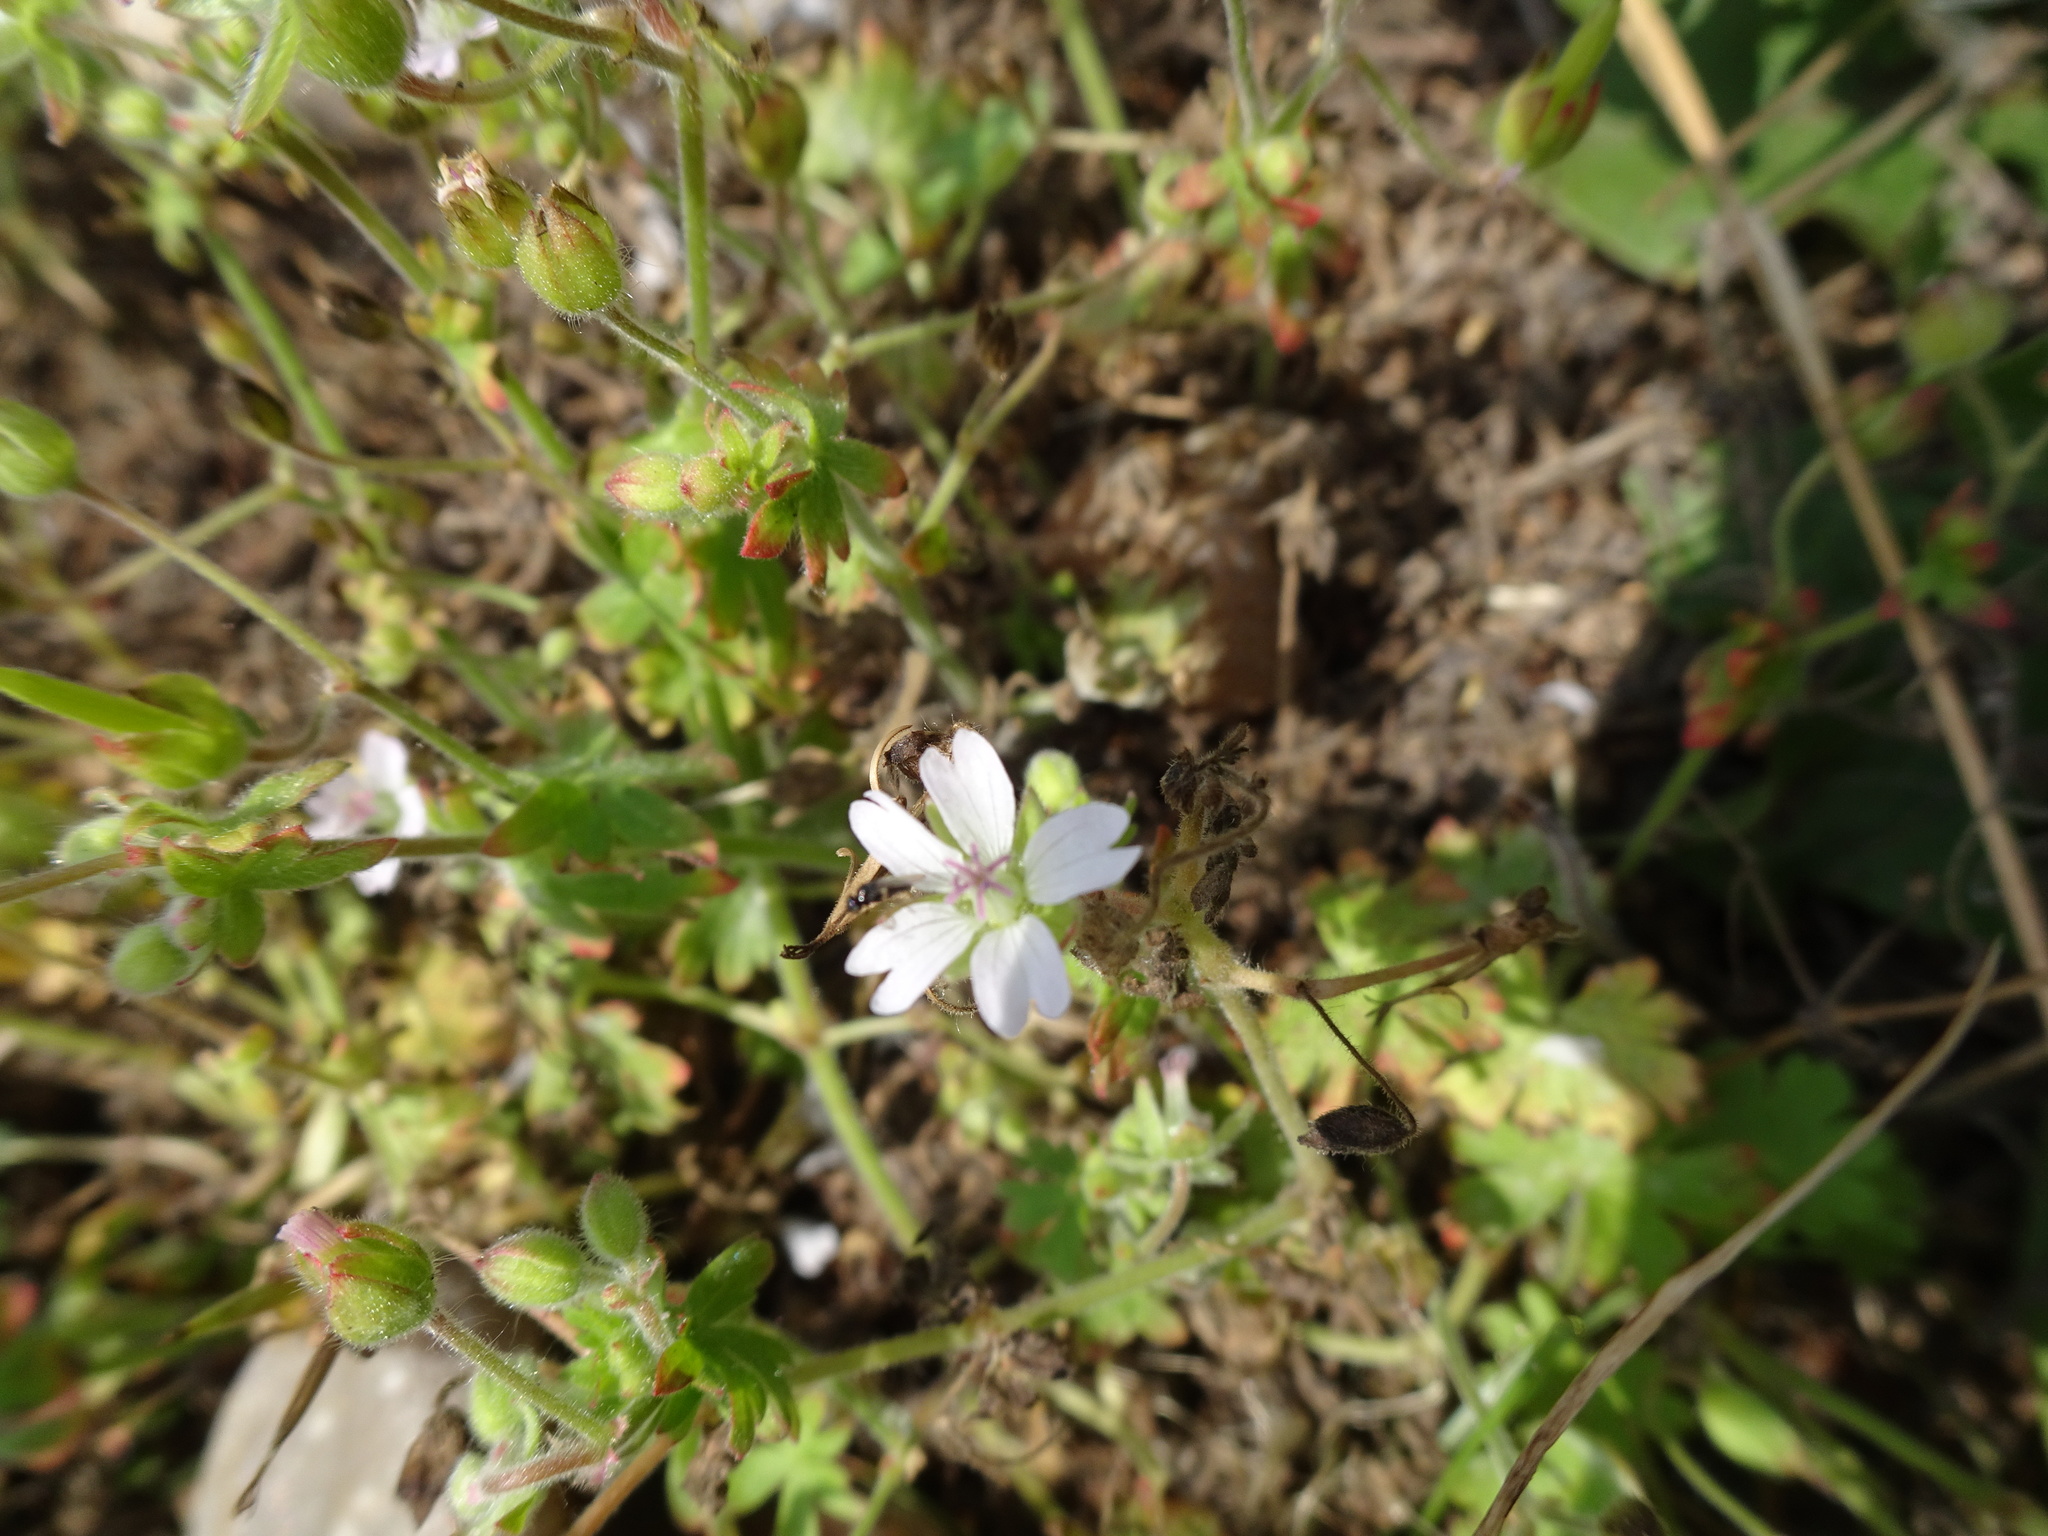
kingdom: Plantae
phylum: Tracheophyta
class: Magnoliopsida
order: Geraniales
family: Geraniaceae
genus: Geranium
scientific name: Geranium molle
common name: Dove's-foot crane's-bill
